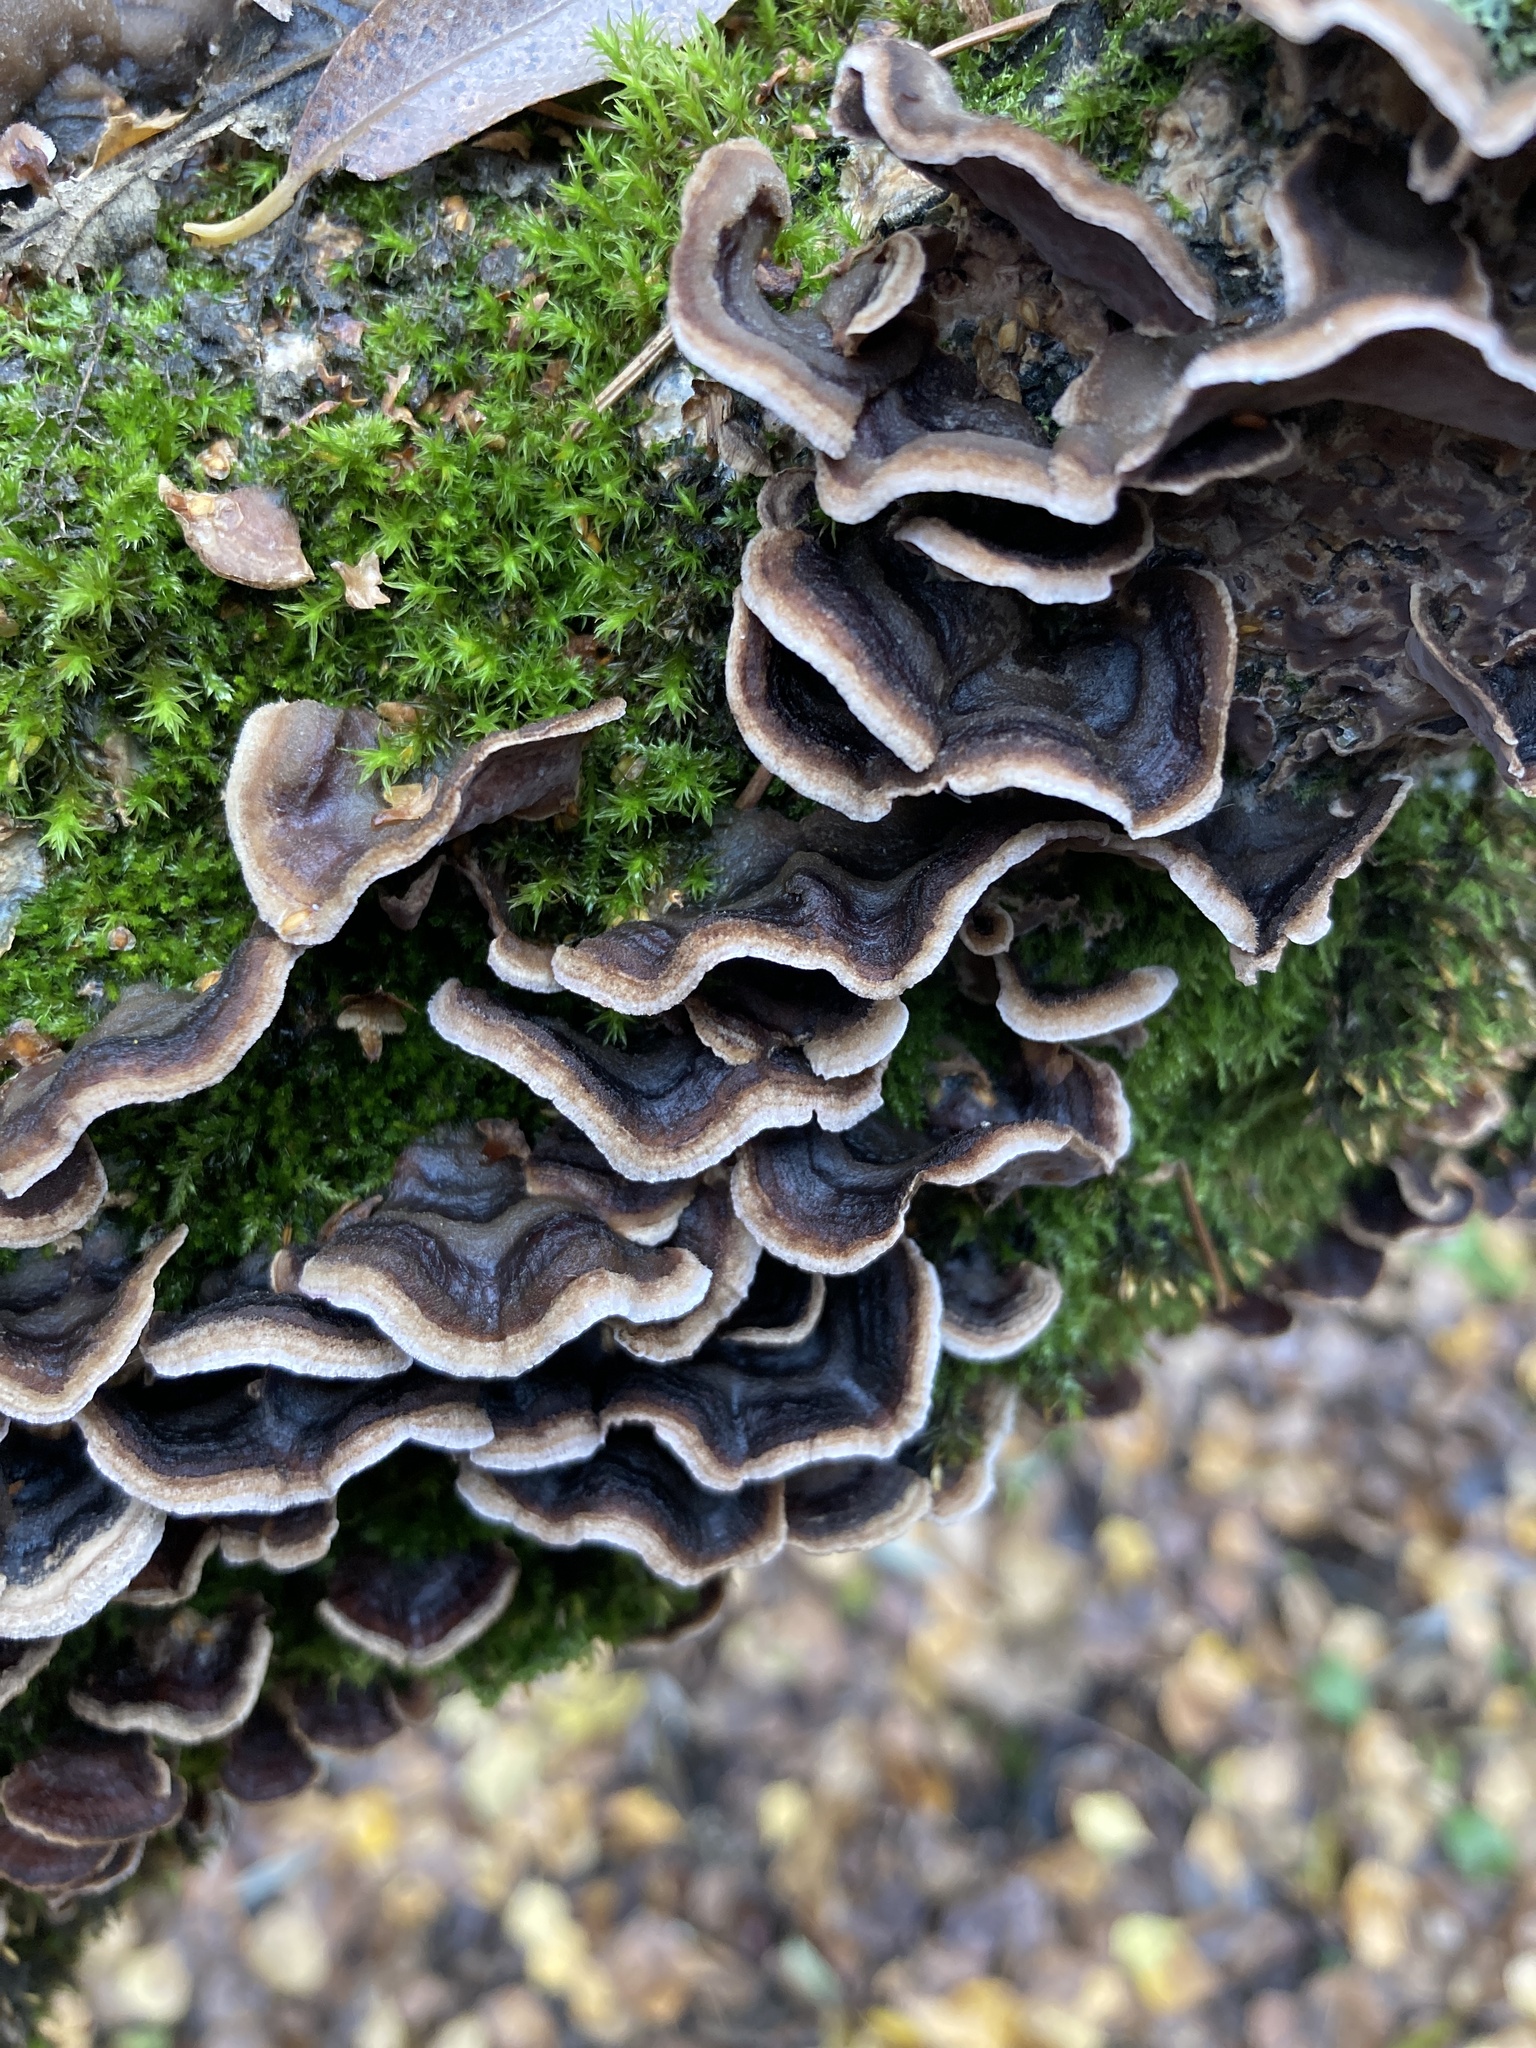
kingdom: Fungi
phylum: Basidiomycota
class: Agaricomycetes
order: Polyporales
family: Phanerochaetaceae
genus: Bjerkandera
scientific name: Bjerkandera adusta
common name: Smoky bracket
